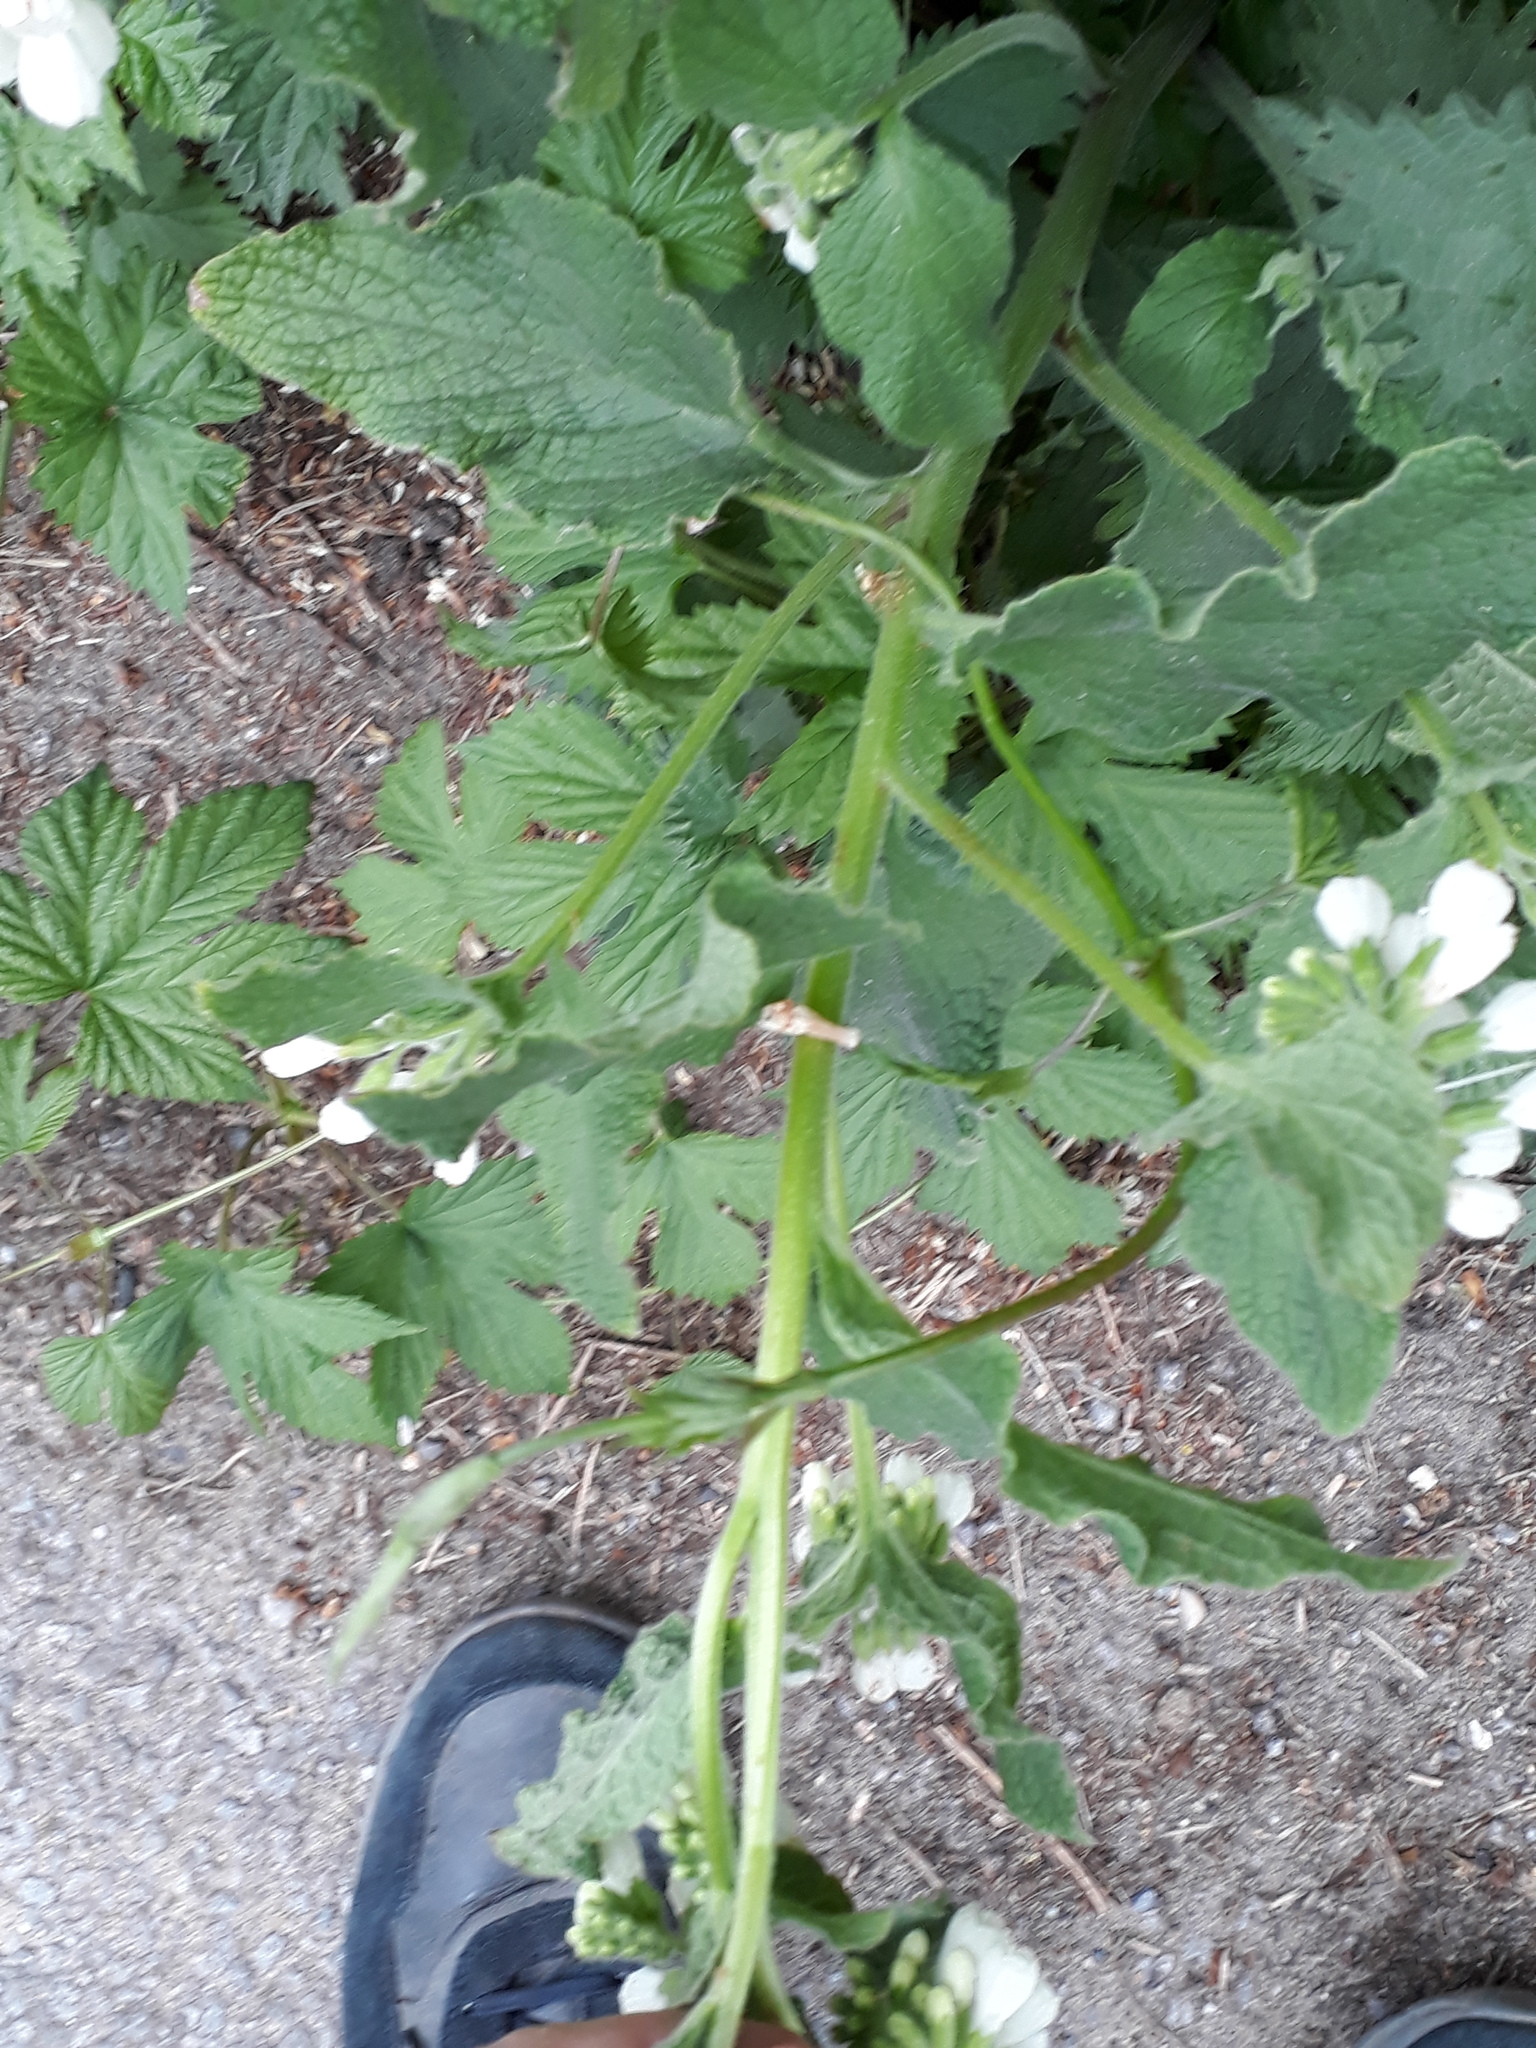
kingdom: Plantae
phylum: Tracheophyta
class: Magnoliopsida
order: Boraginales
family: Boraginaceae
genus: Symphytum
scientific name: Symphytum orientale
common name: White comfrey
